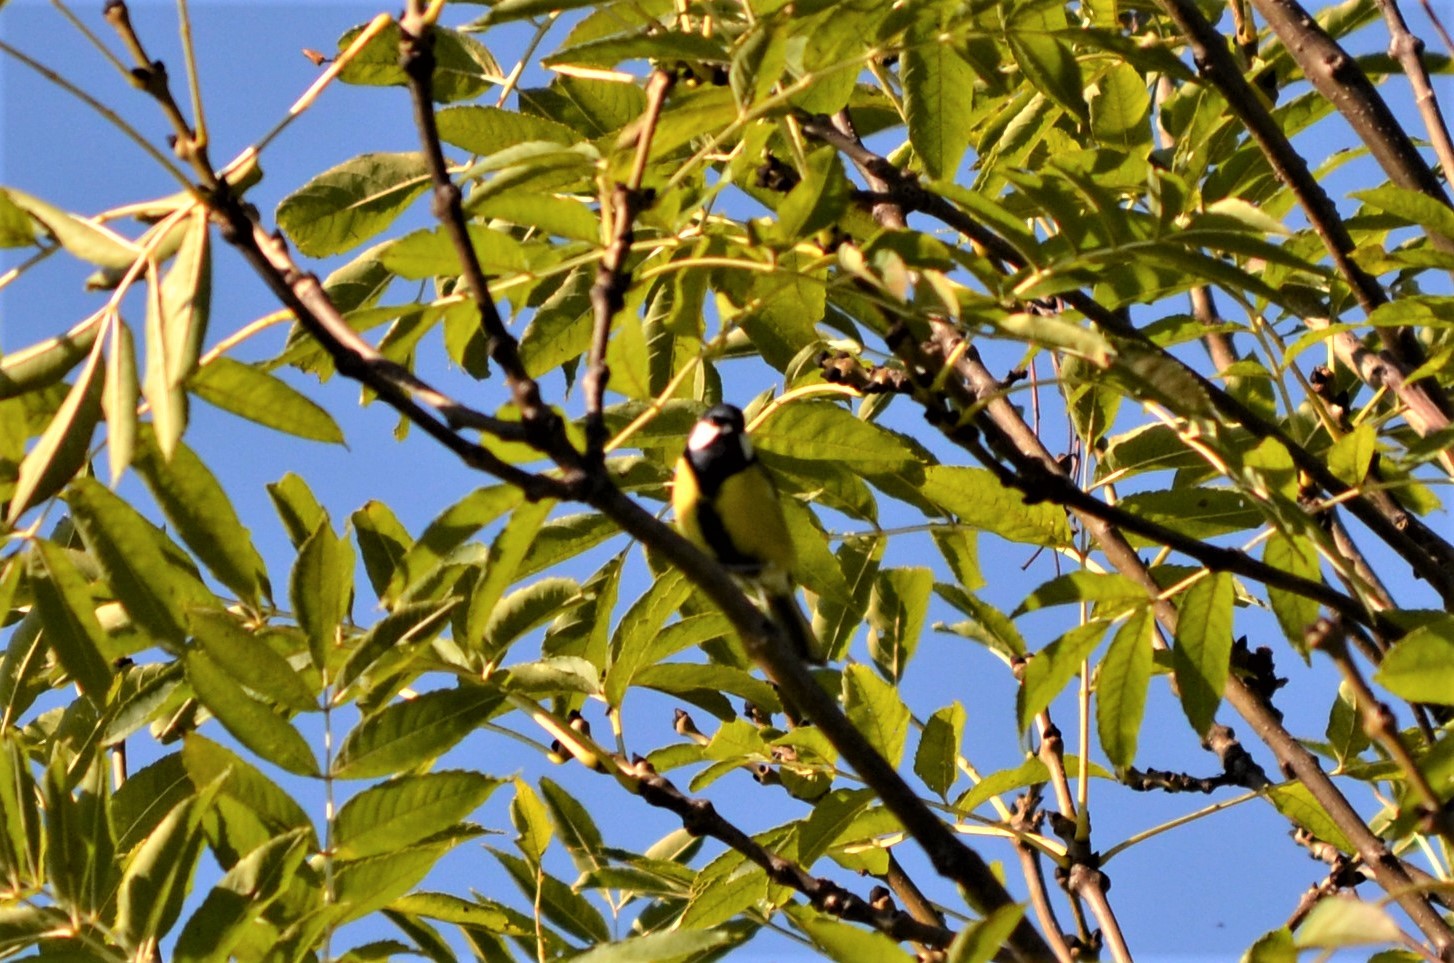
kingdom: Animalia
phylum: Chordata
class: Aves
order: Passeriformes
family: Paridae
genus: Parus
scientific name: Parus major
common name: Great tit
